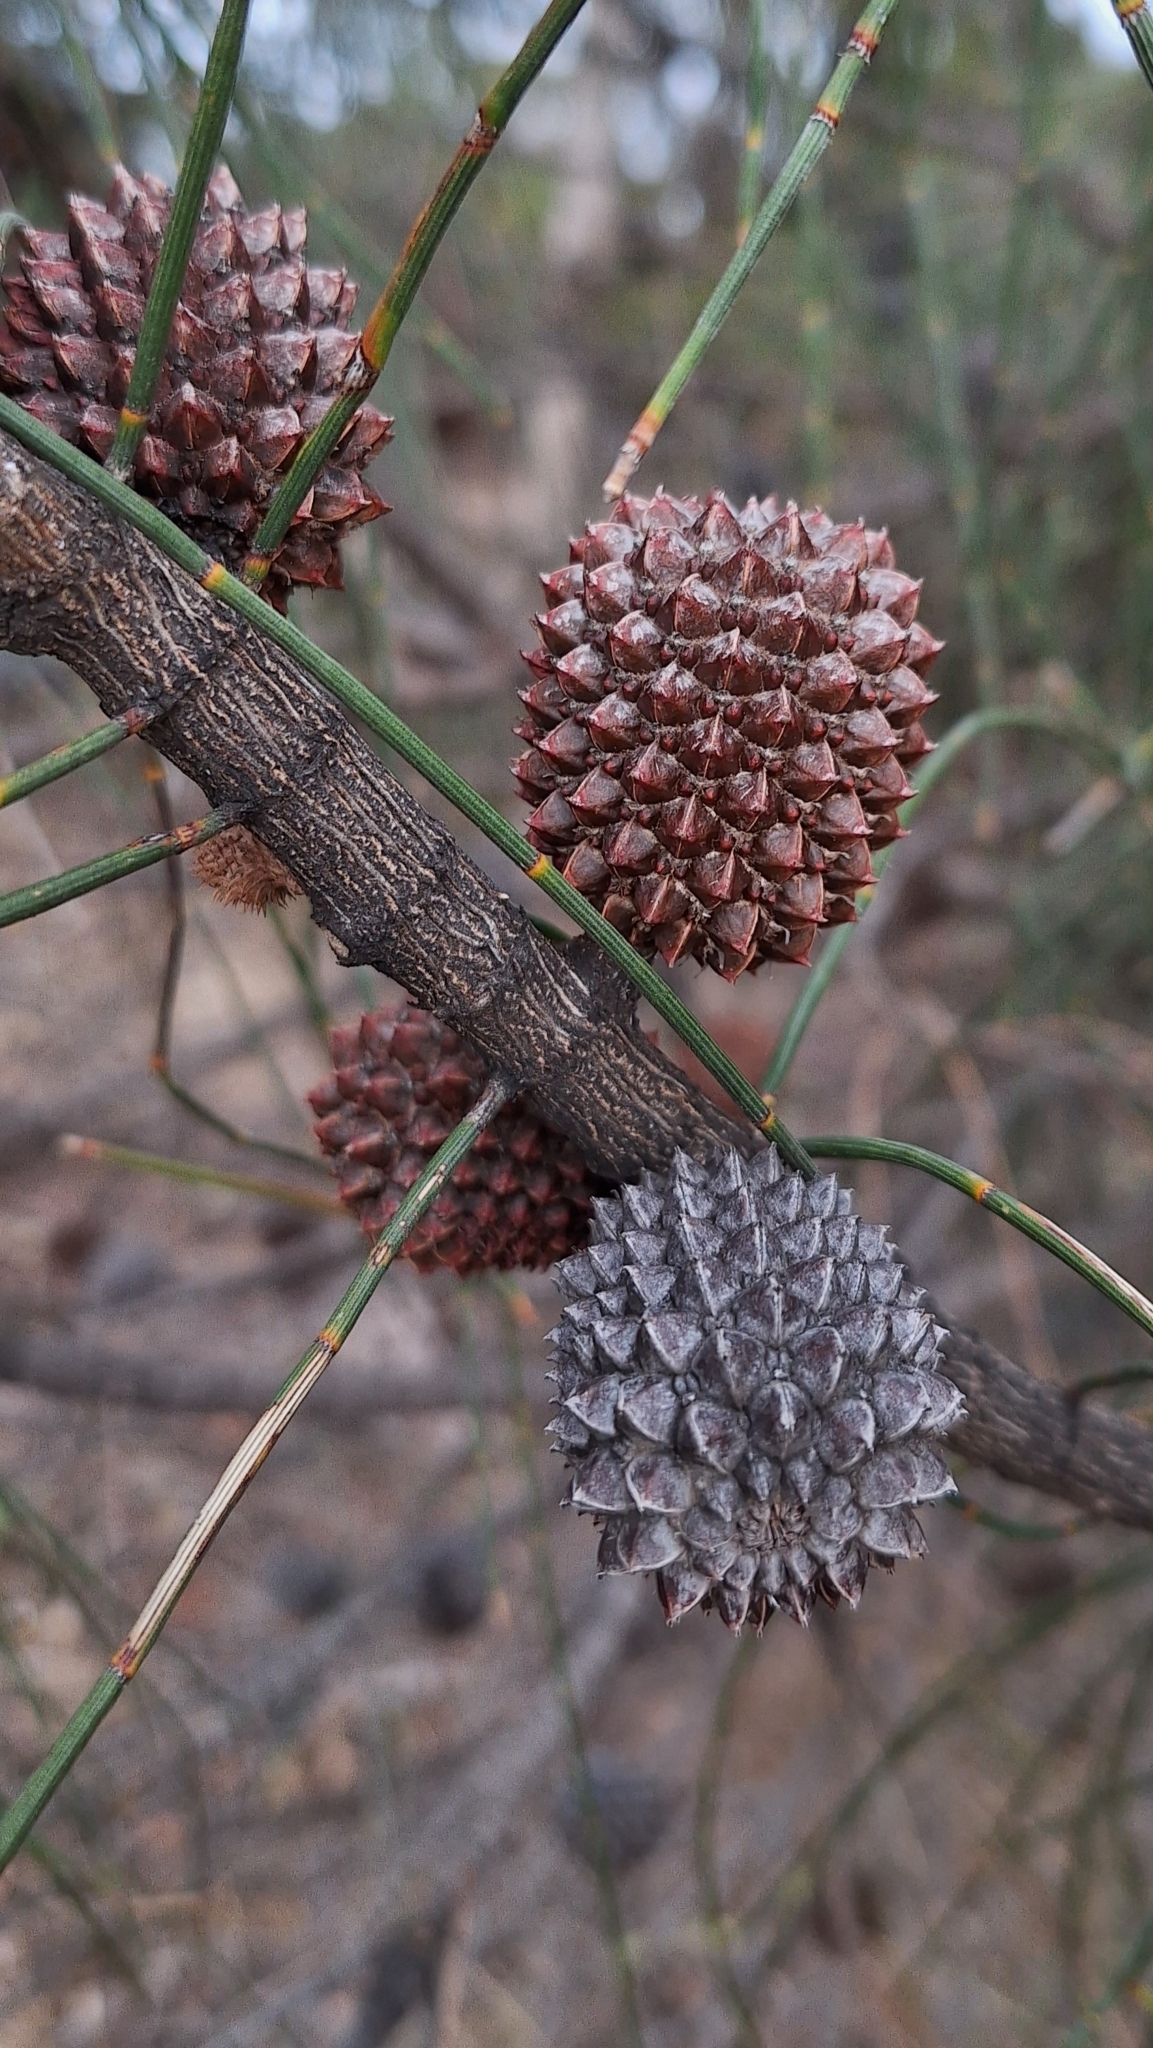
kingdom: Plantae
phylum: Tracheophyta
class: Magnoliopsida
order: Fagales
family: Casuarinaceae
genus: Allocasuarina
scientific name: Allocasuarina verticillata
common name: Drooping she-oak
